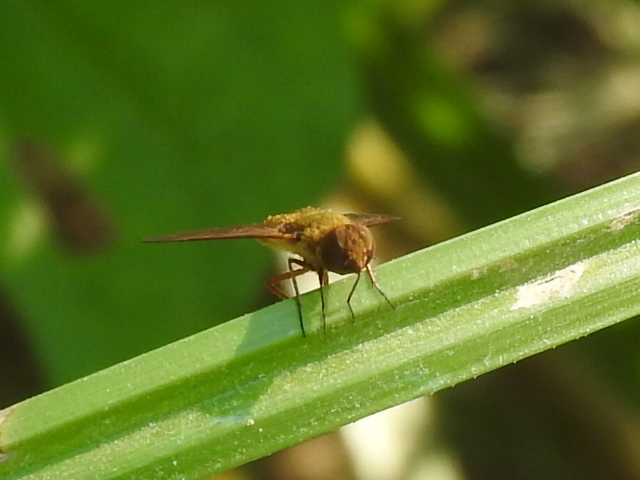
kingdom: Animalia
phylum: Arthropoda
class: Insecta
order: Diptera
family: Bombyliidae
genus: Chrysanthrax
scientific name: Chrysanthrax edititius
